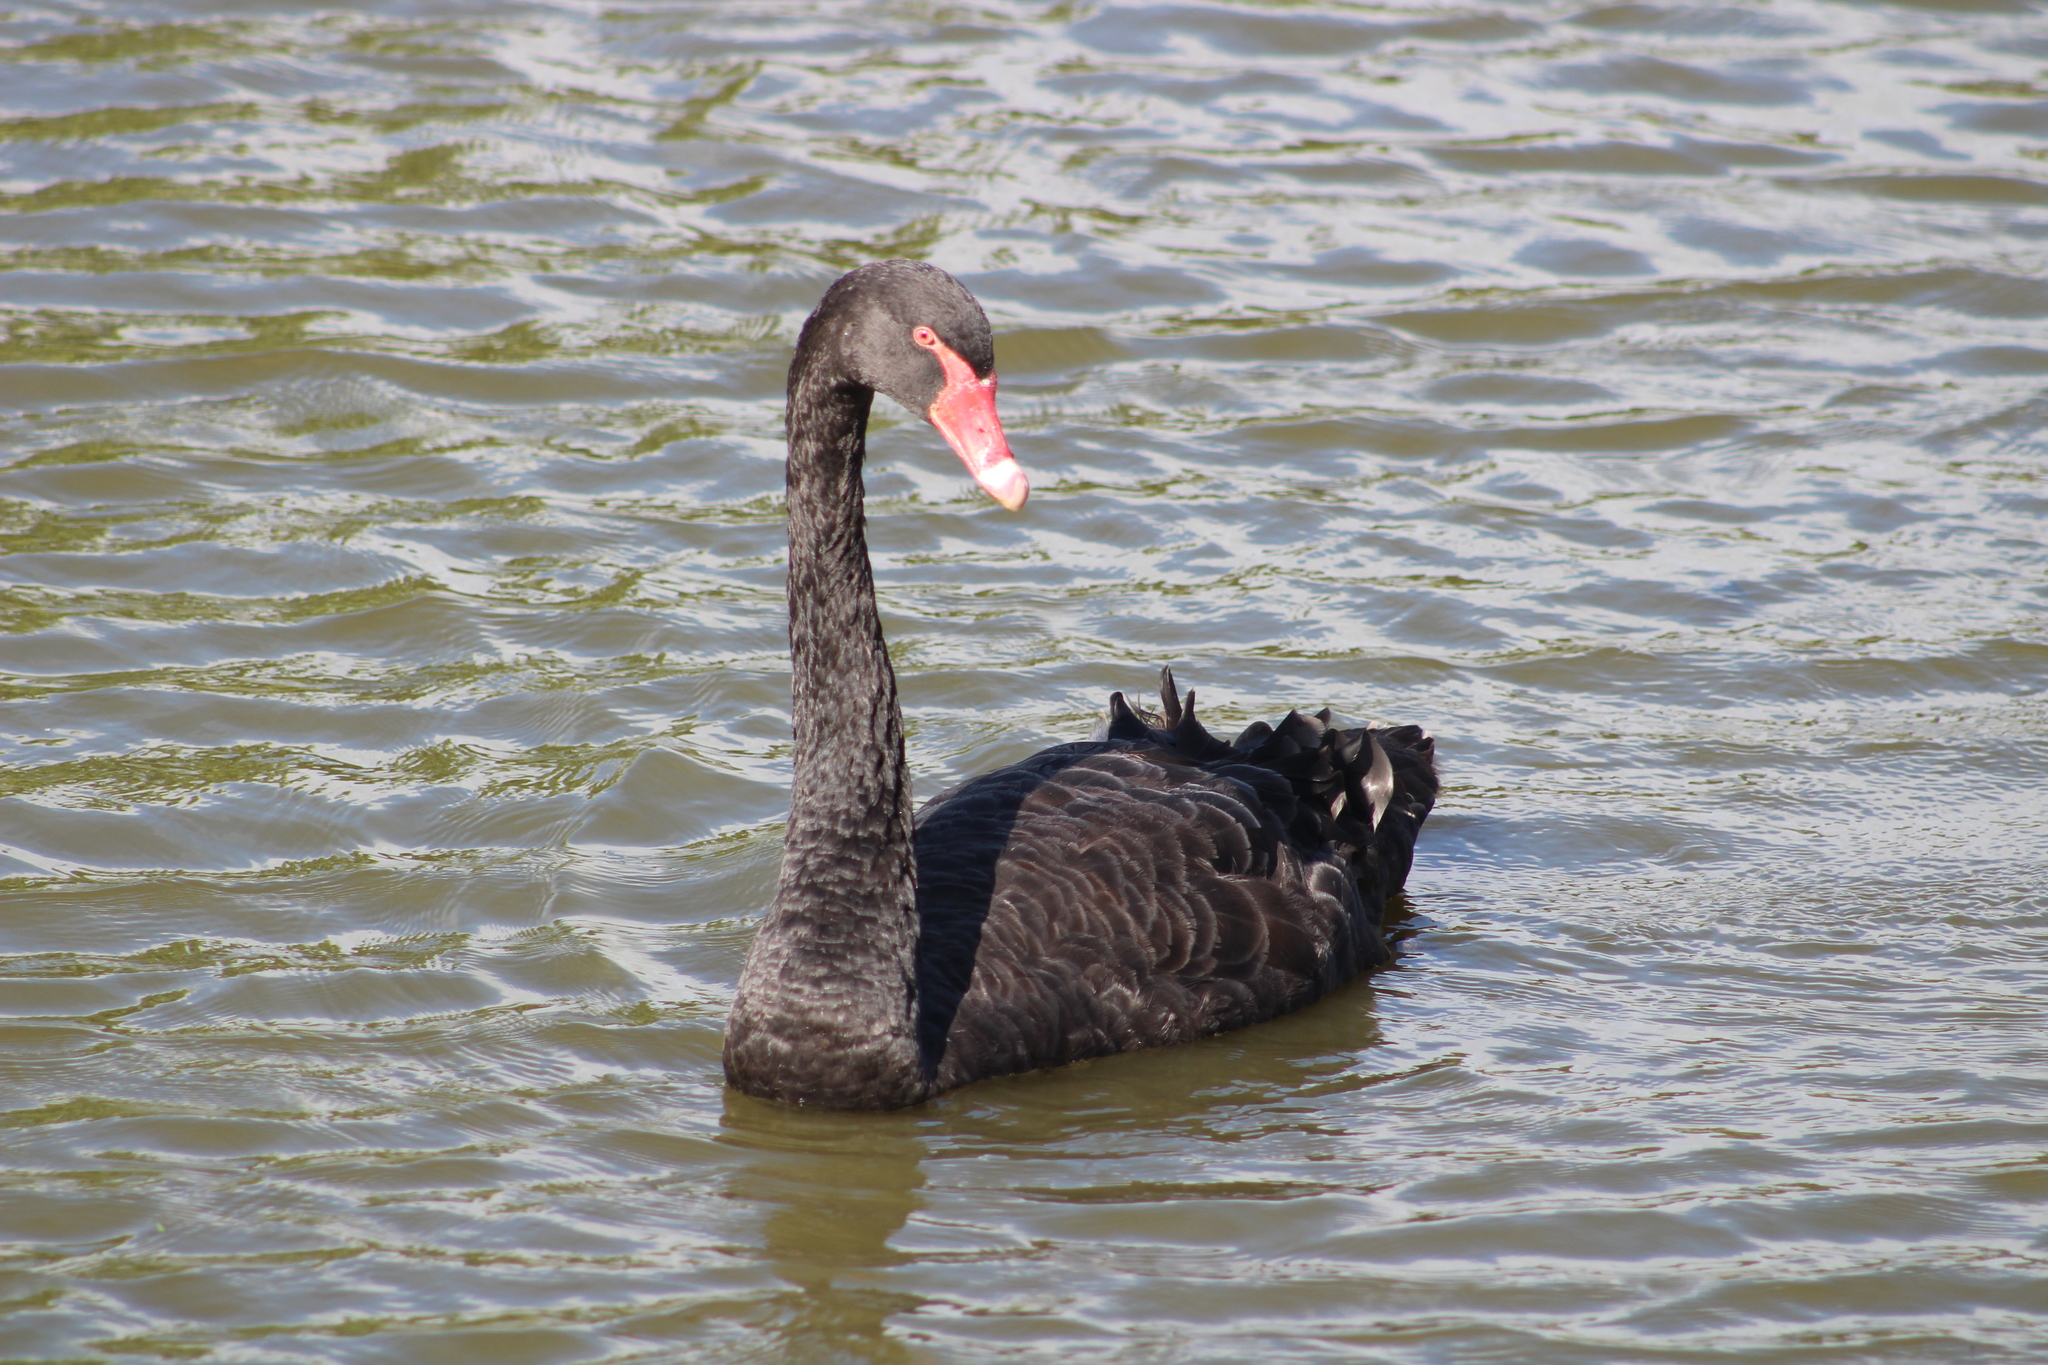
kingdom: Animalia
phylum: Chordata
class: Aves
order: Anseriformes
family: Anatidae
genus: Cygnus
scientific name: Cygnus atratus
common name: Black swan
